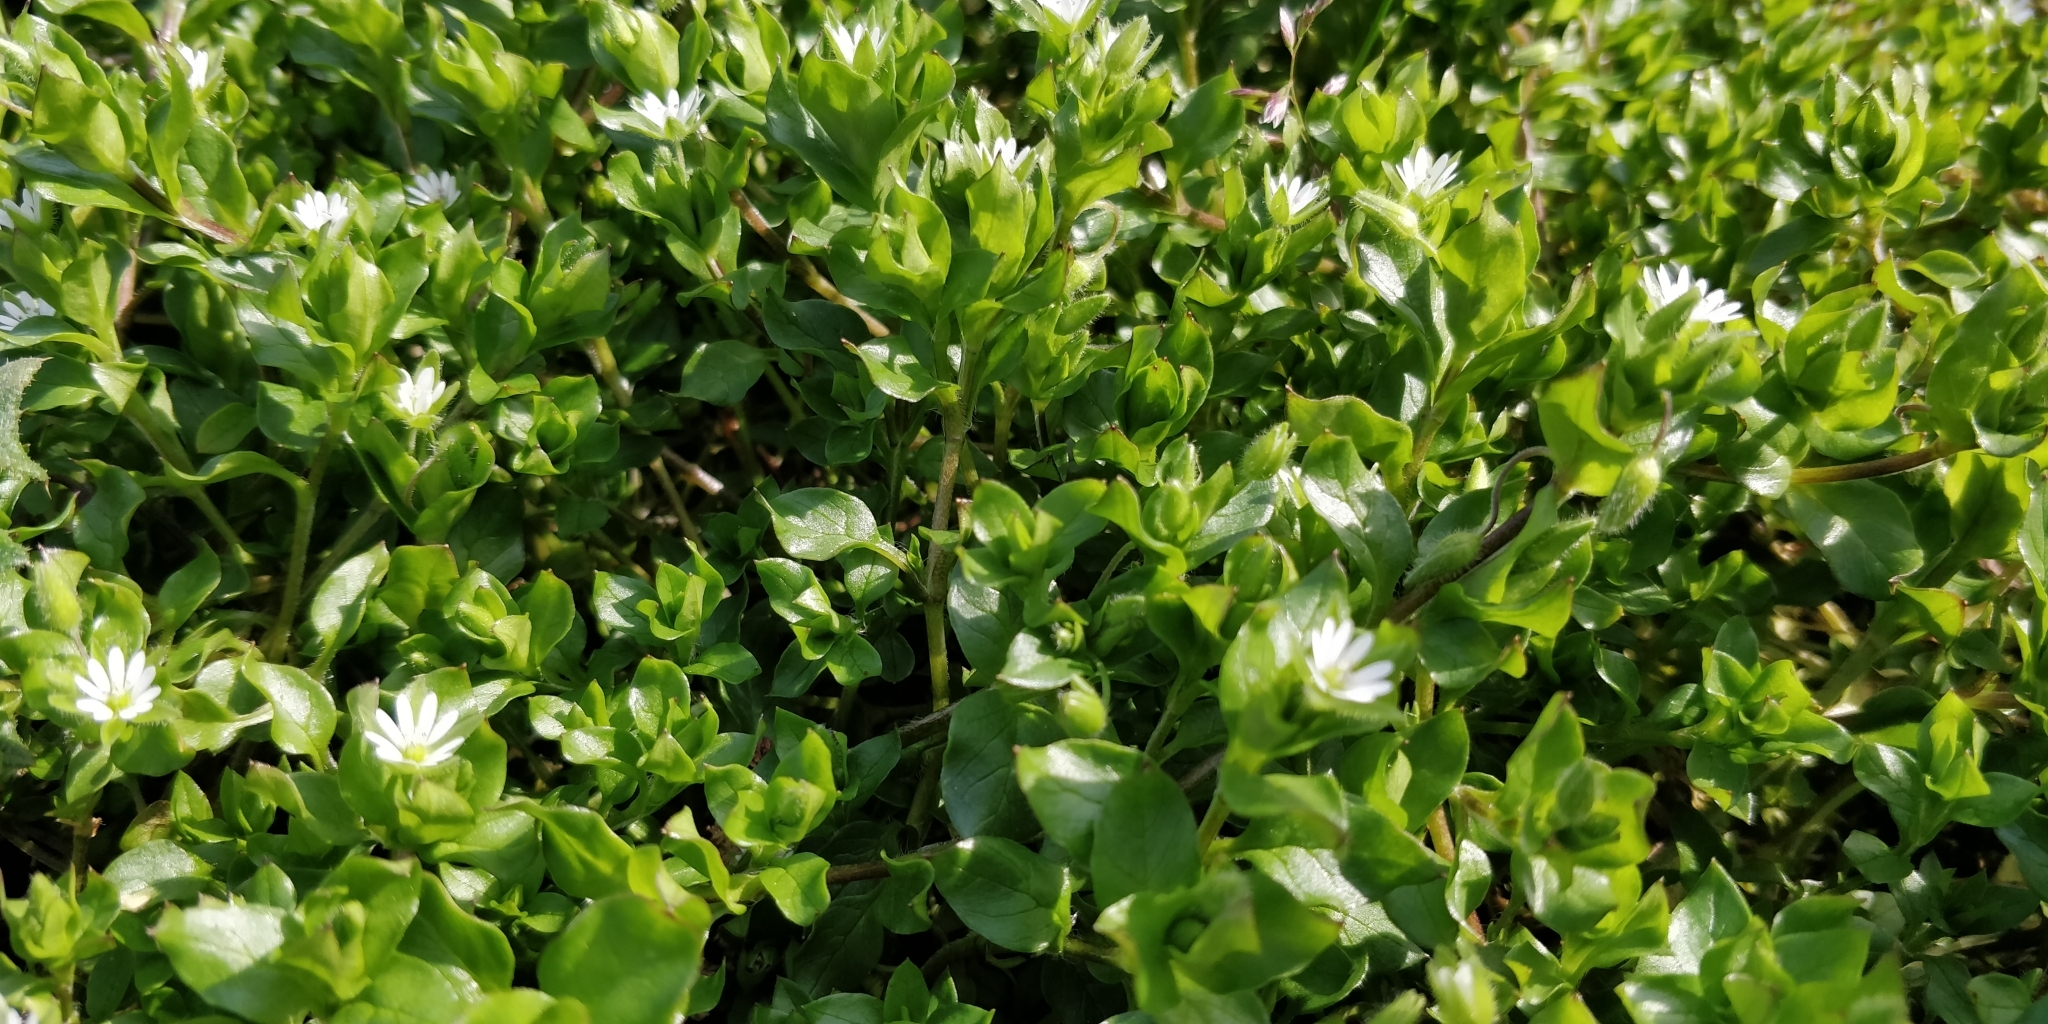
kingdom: Plantae
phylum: Tracheophyta
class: Magnoliopsida
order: Caryophyllales
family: Caryophyllaceae
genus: Stellaria
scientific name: Stellaria media
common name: Common chickweed
